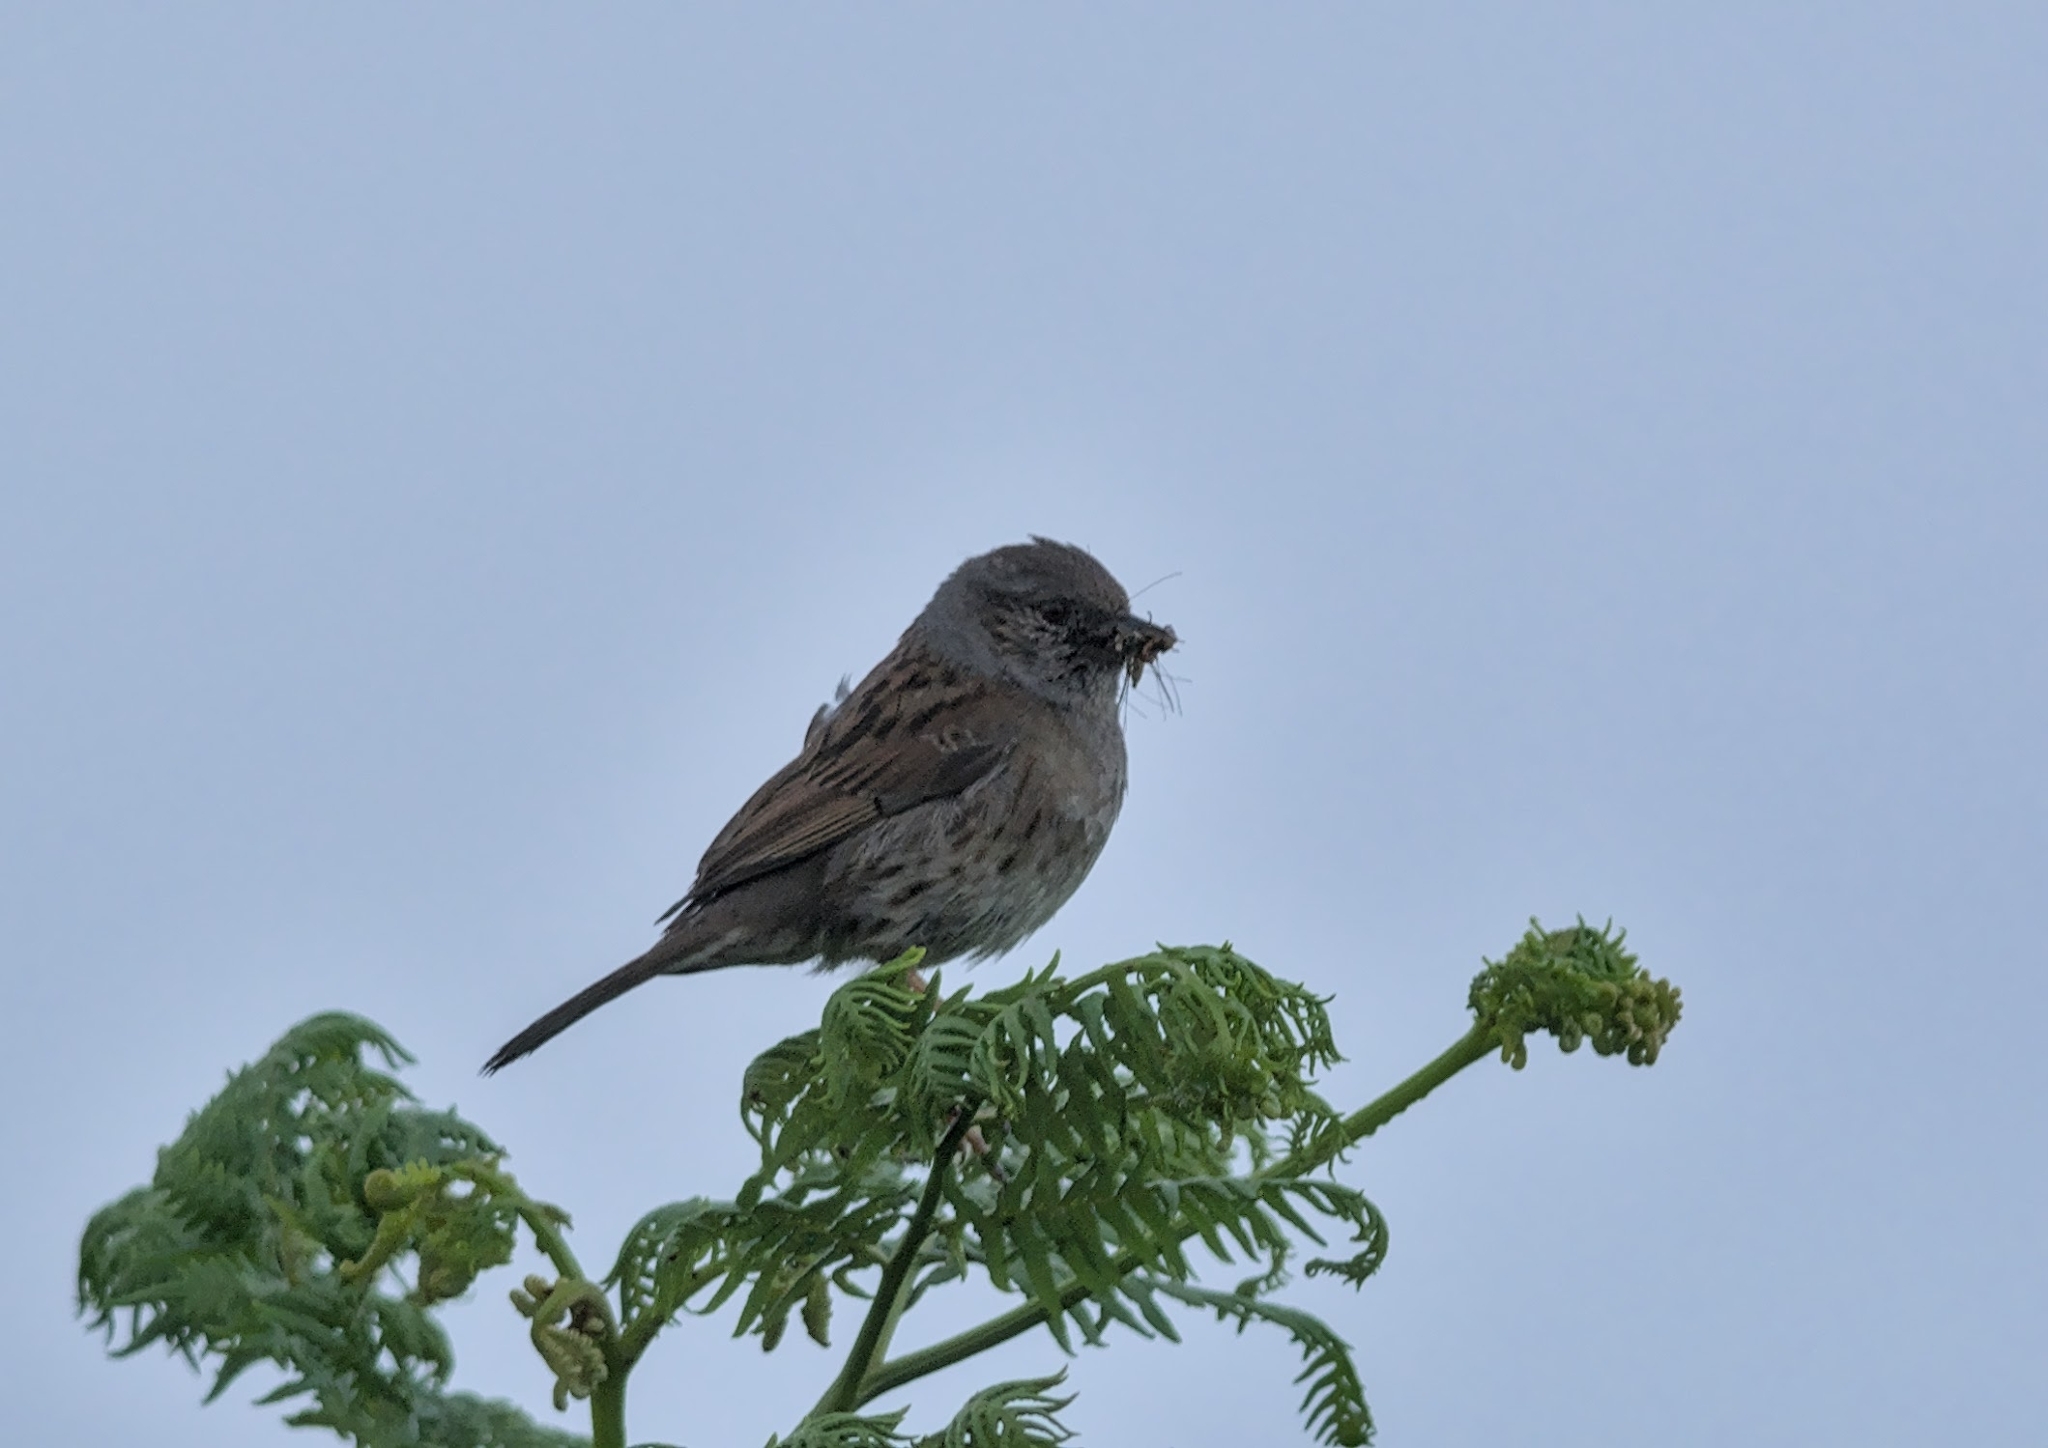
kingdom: Animalia
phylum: Chordata
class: Aves
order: Passeriformes
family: Prunellidae
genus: Prunella
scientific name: Prunella modularis
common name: Dunnock
